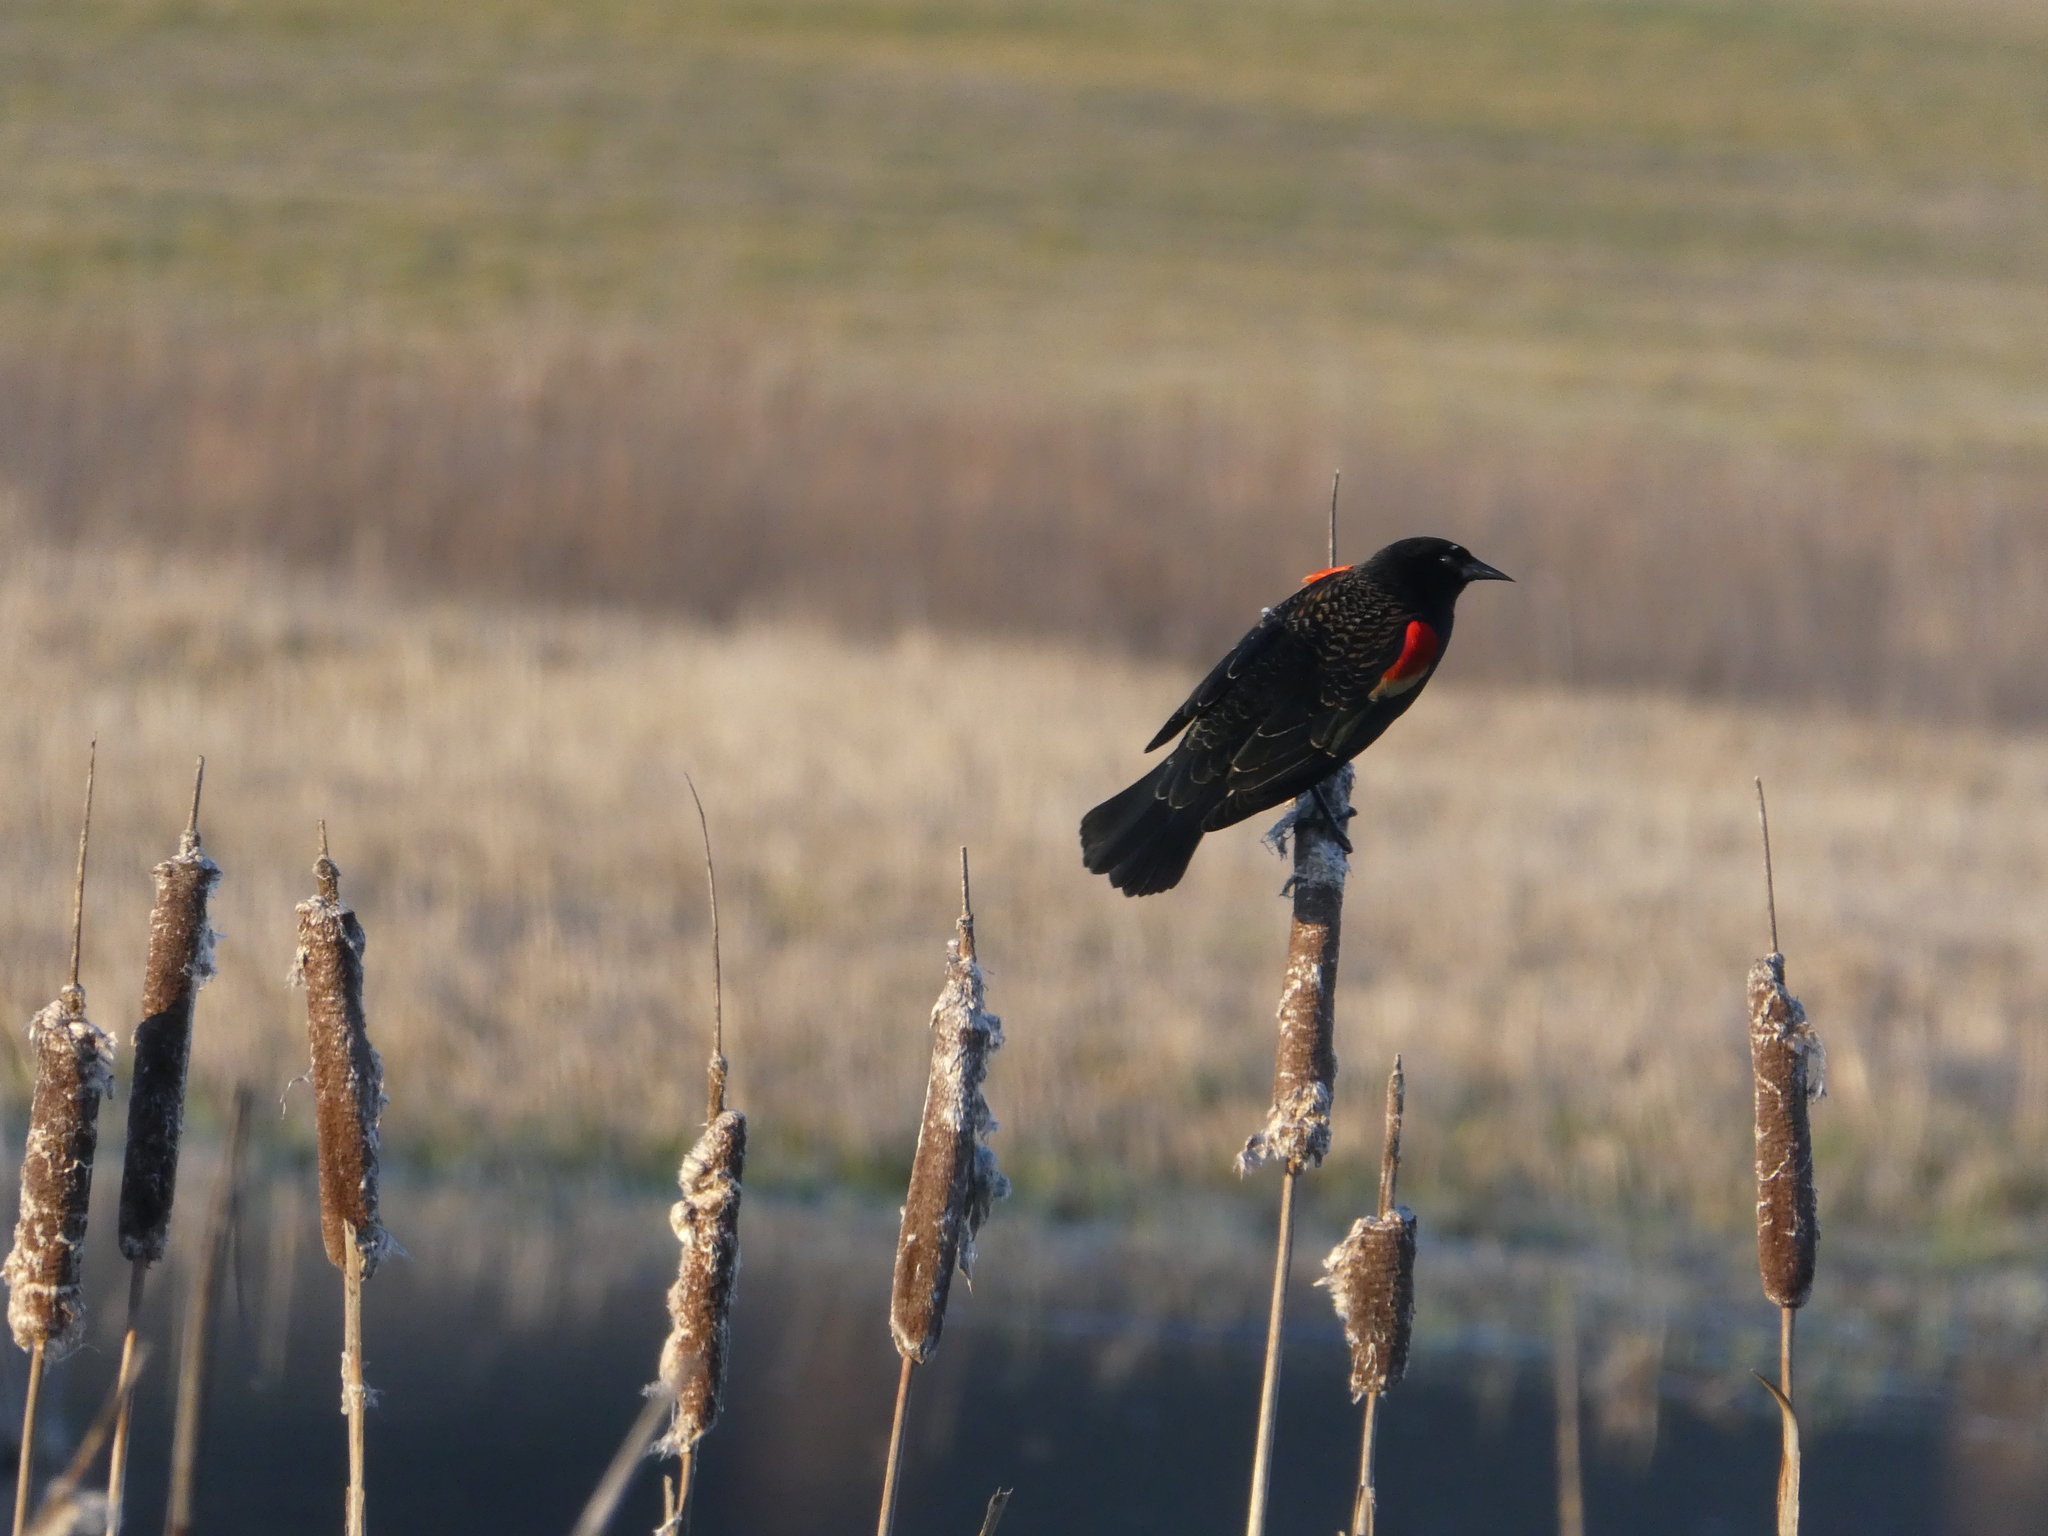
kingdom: Animalia
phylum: Chordata
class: Aves
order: Passeriformes
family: Icteridae
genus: Agelaius
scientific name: Agelaius phoeniceus
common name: Red-winged blackbird
